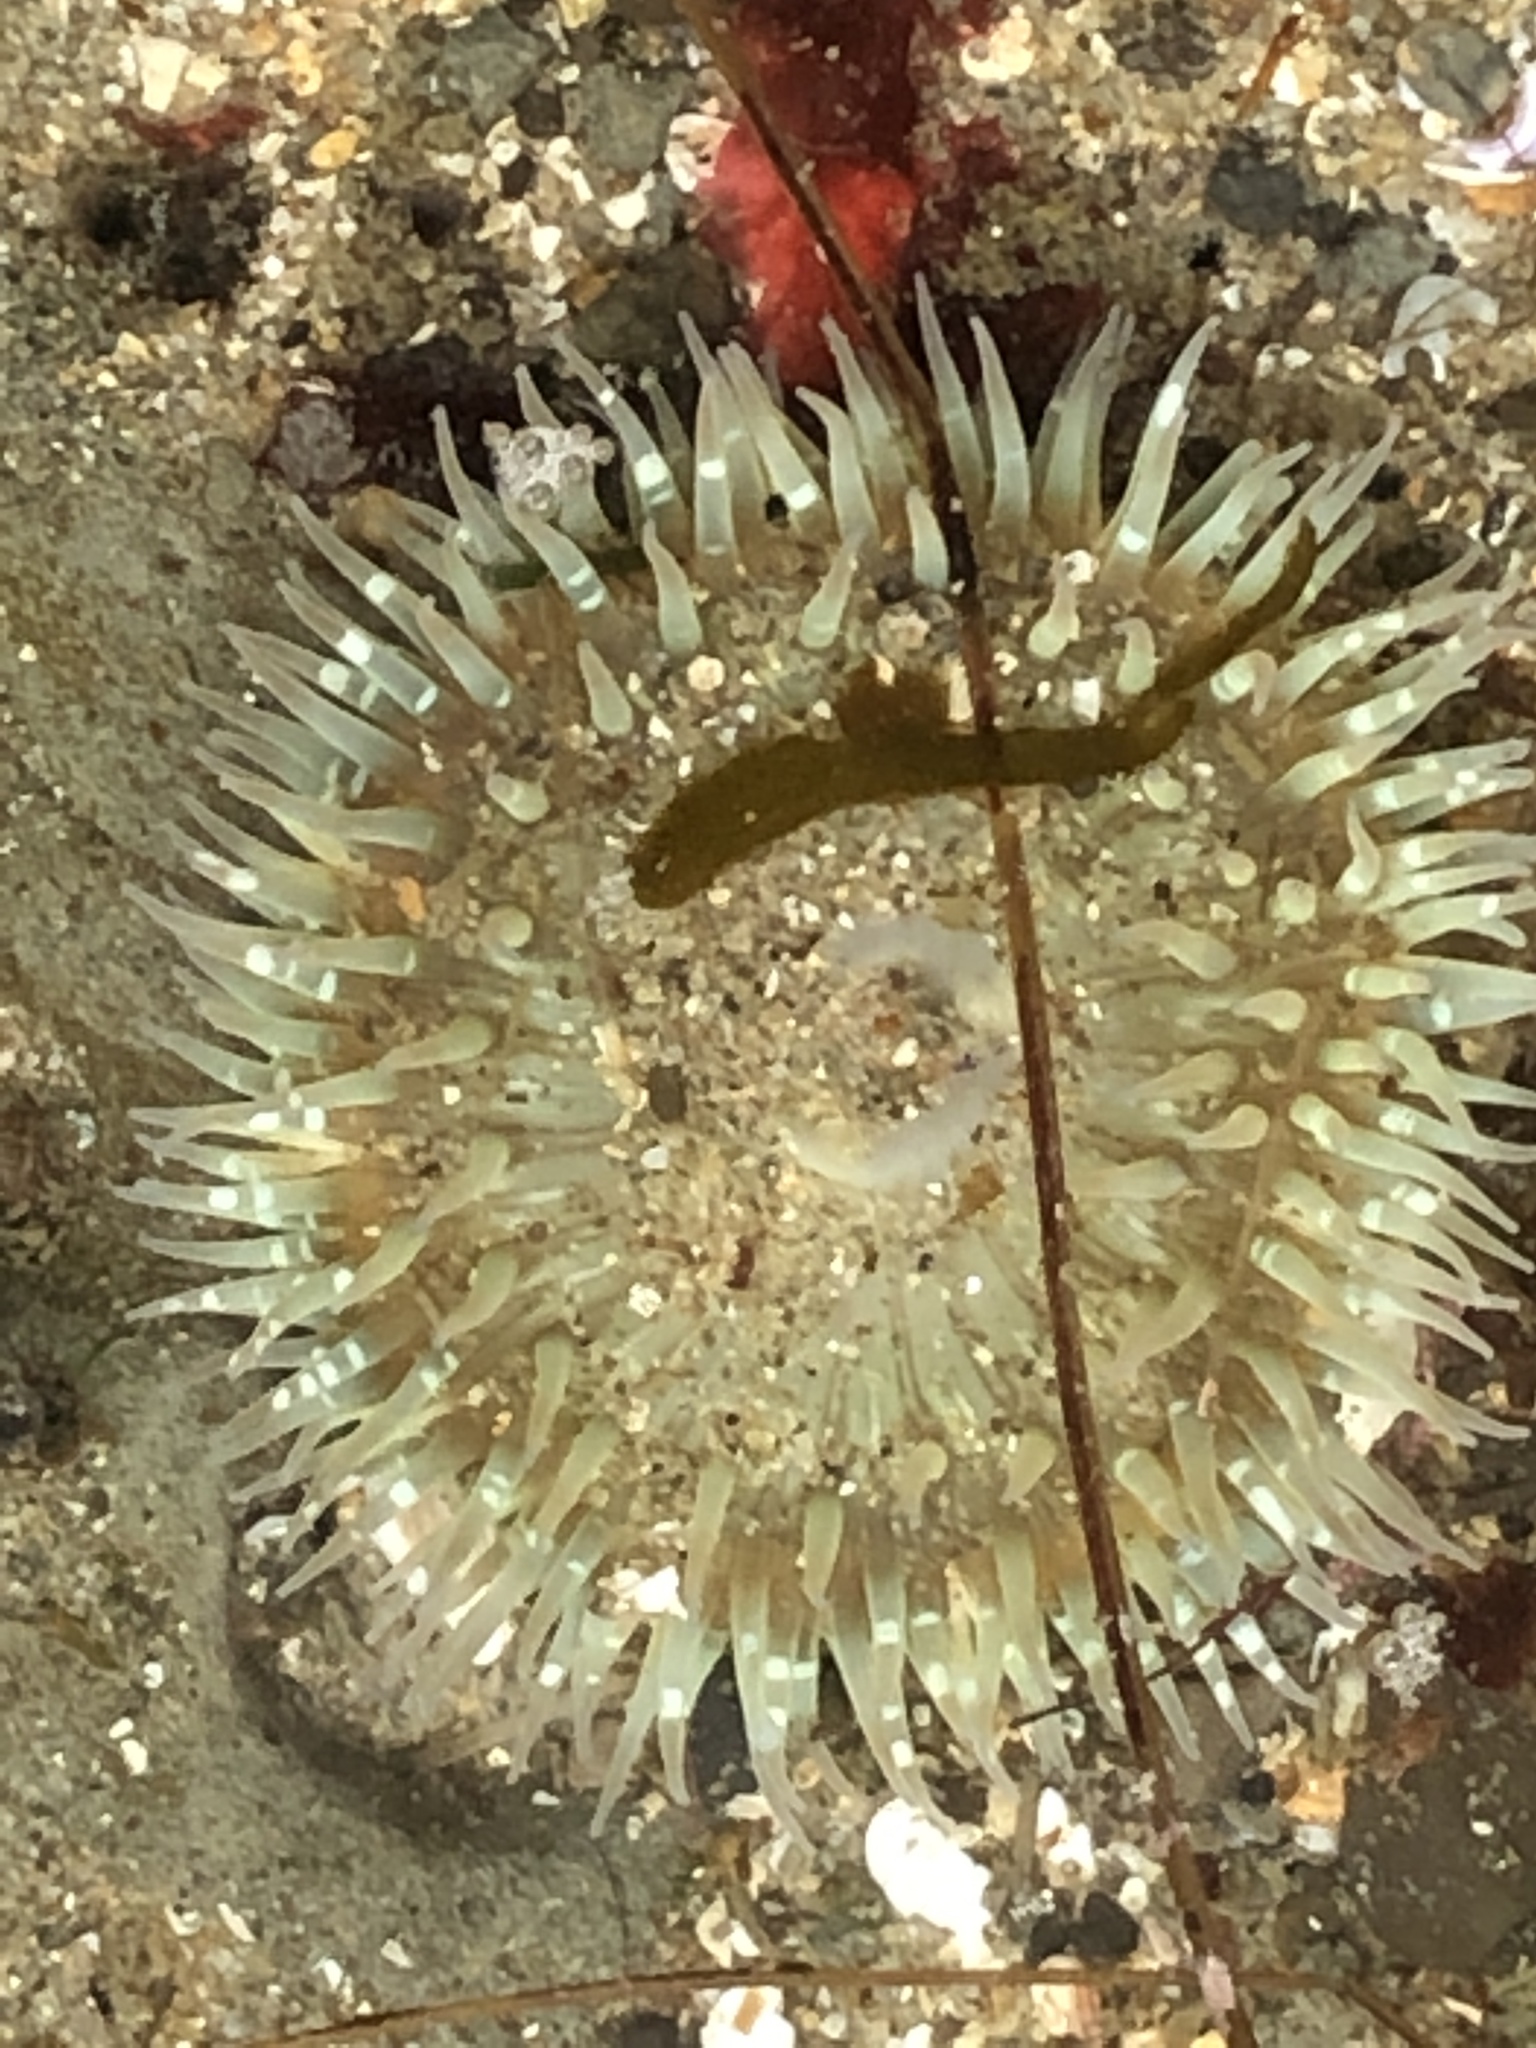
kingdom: Animalia
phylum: Cnidaria
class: Anthozoa
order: Actiniaria
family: Actiniidae
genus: Anthopleura
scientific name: Anthopleura sola
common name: Sun anemone
